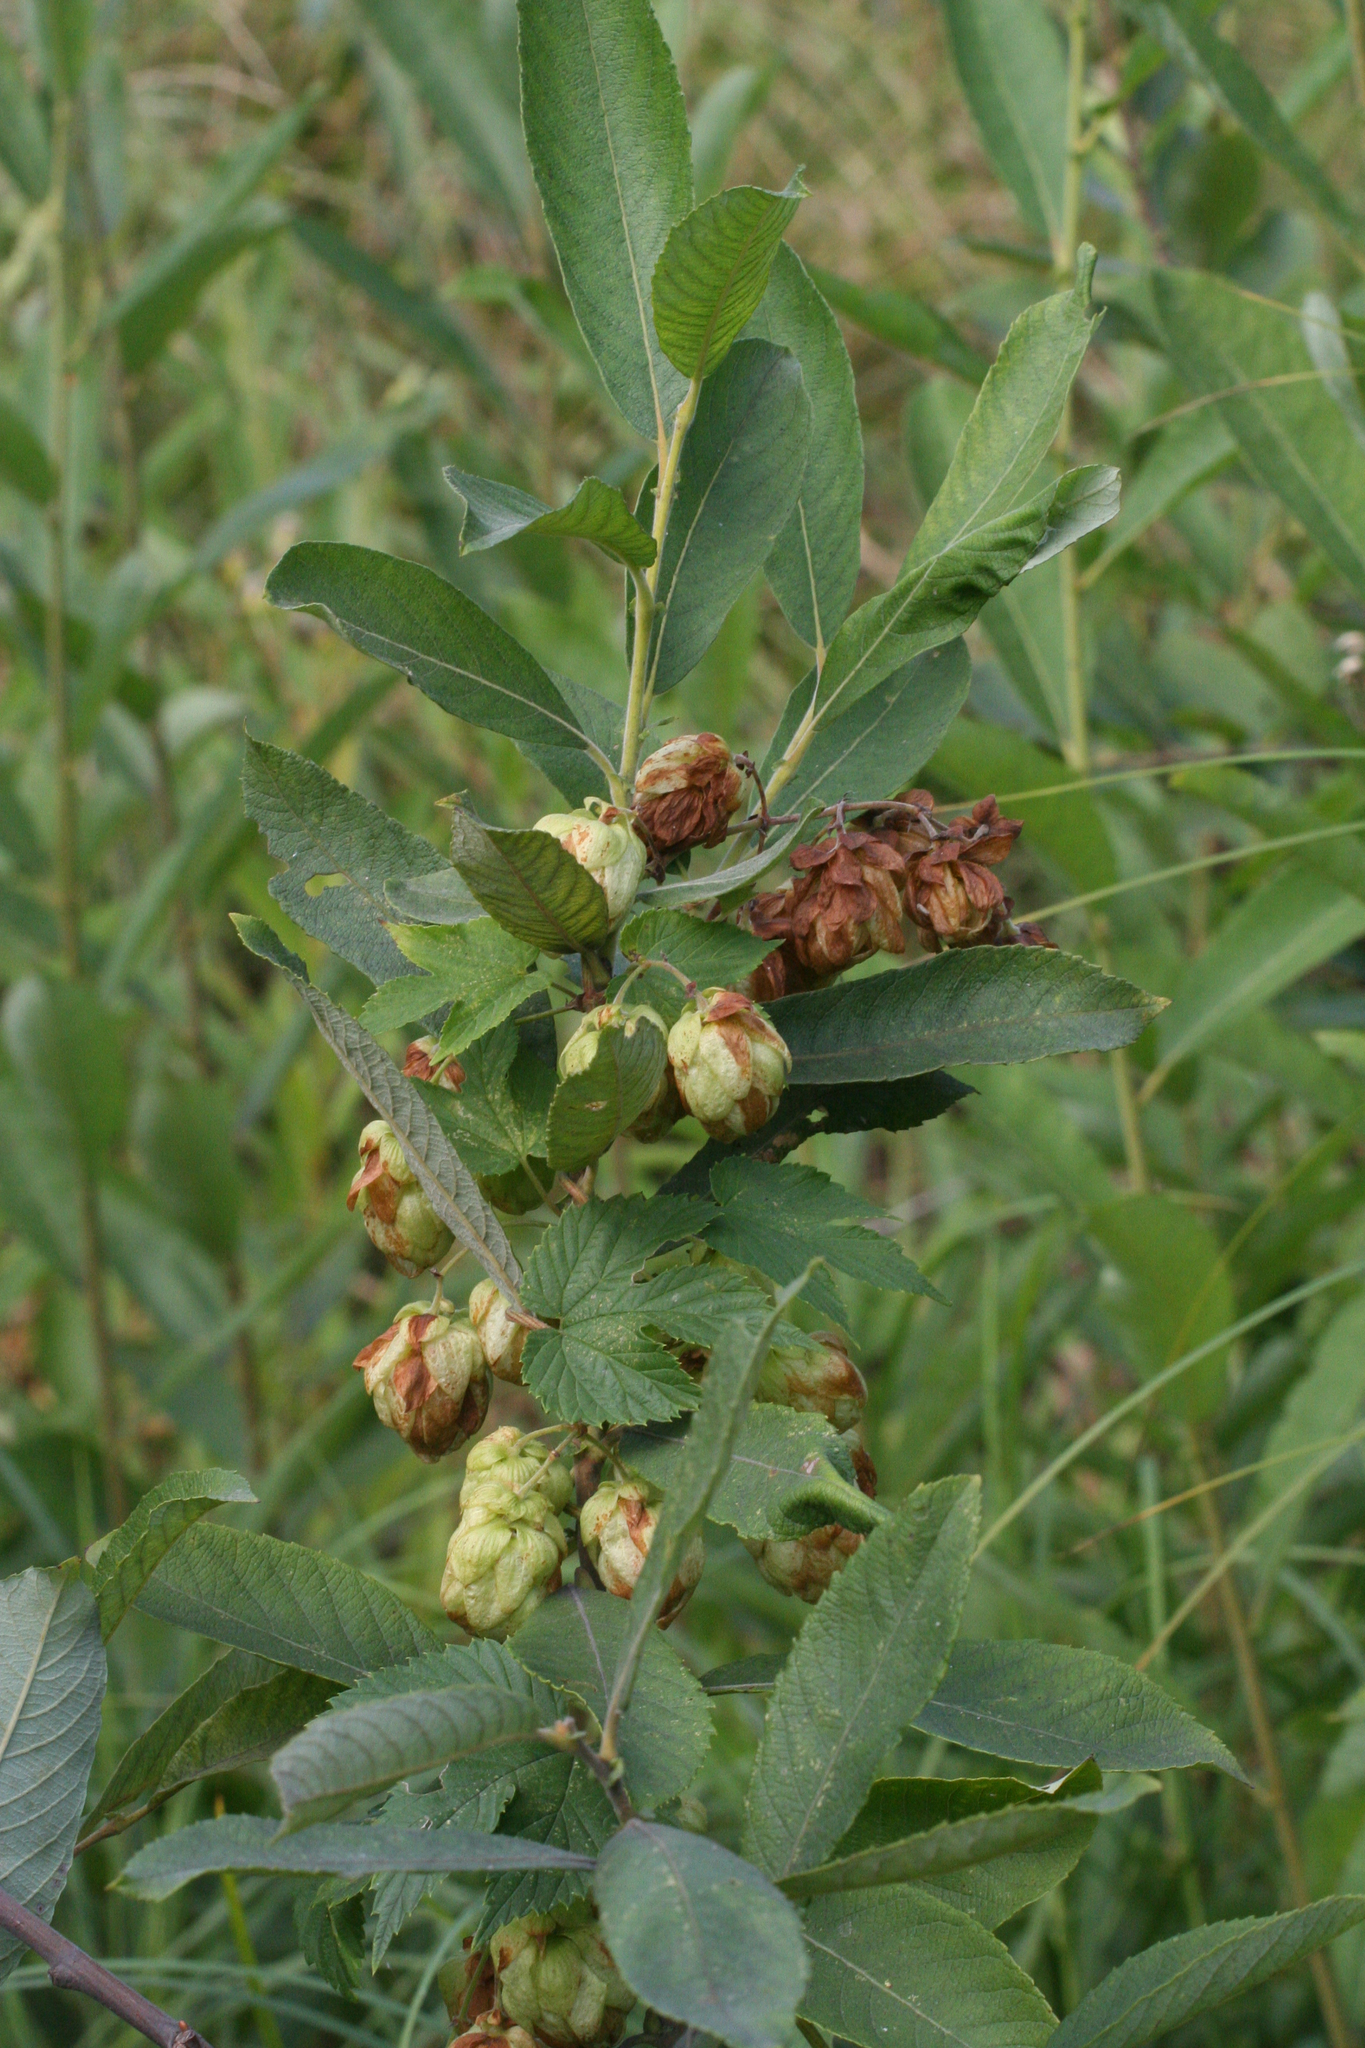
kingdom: Plantae
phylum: Tracheophyta
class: Magnoliopsida
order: Rosales
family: Cannabaceae
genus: Humulus
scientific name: Humulus lupulus
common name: Hop
